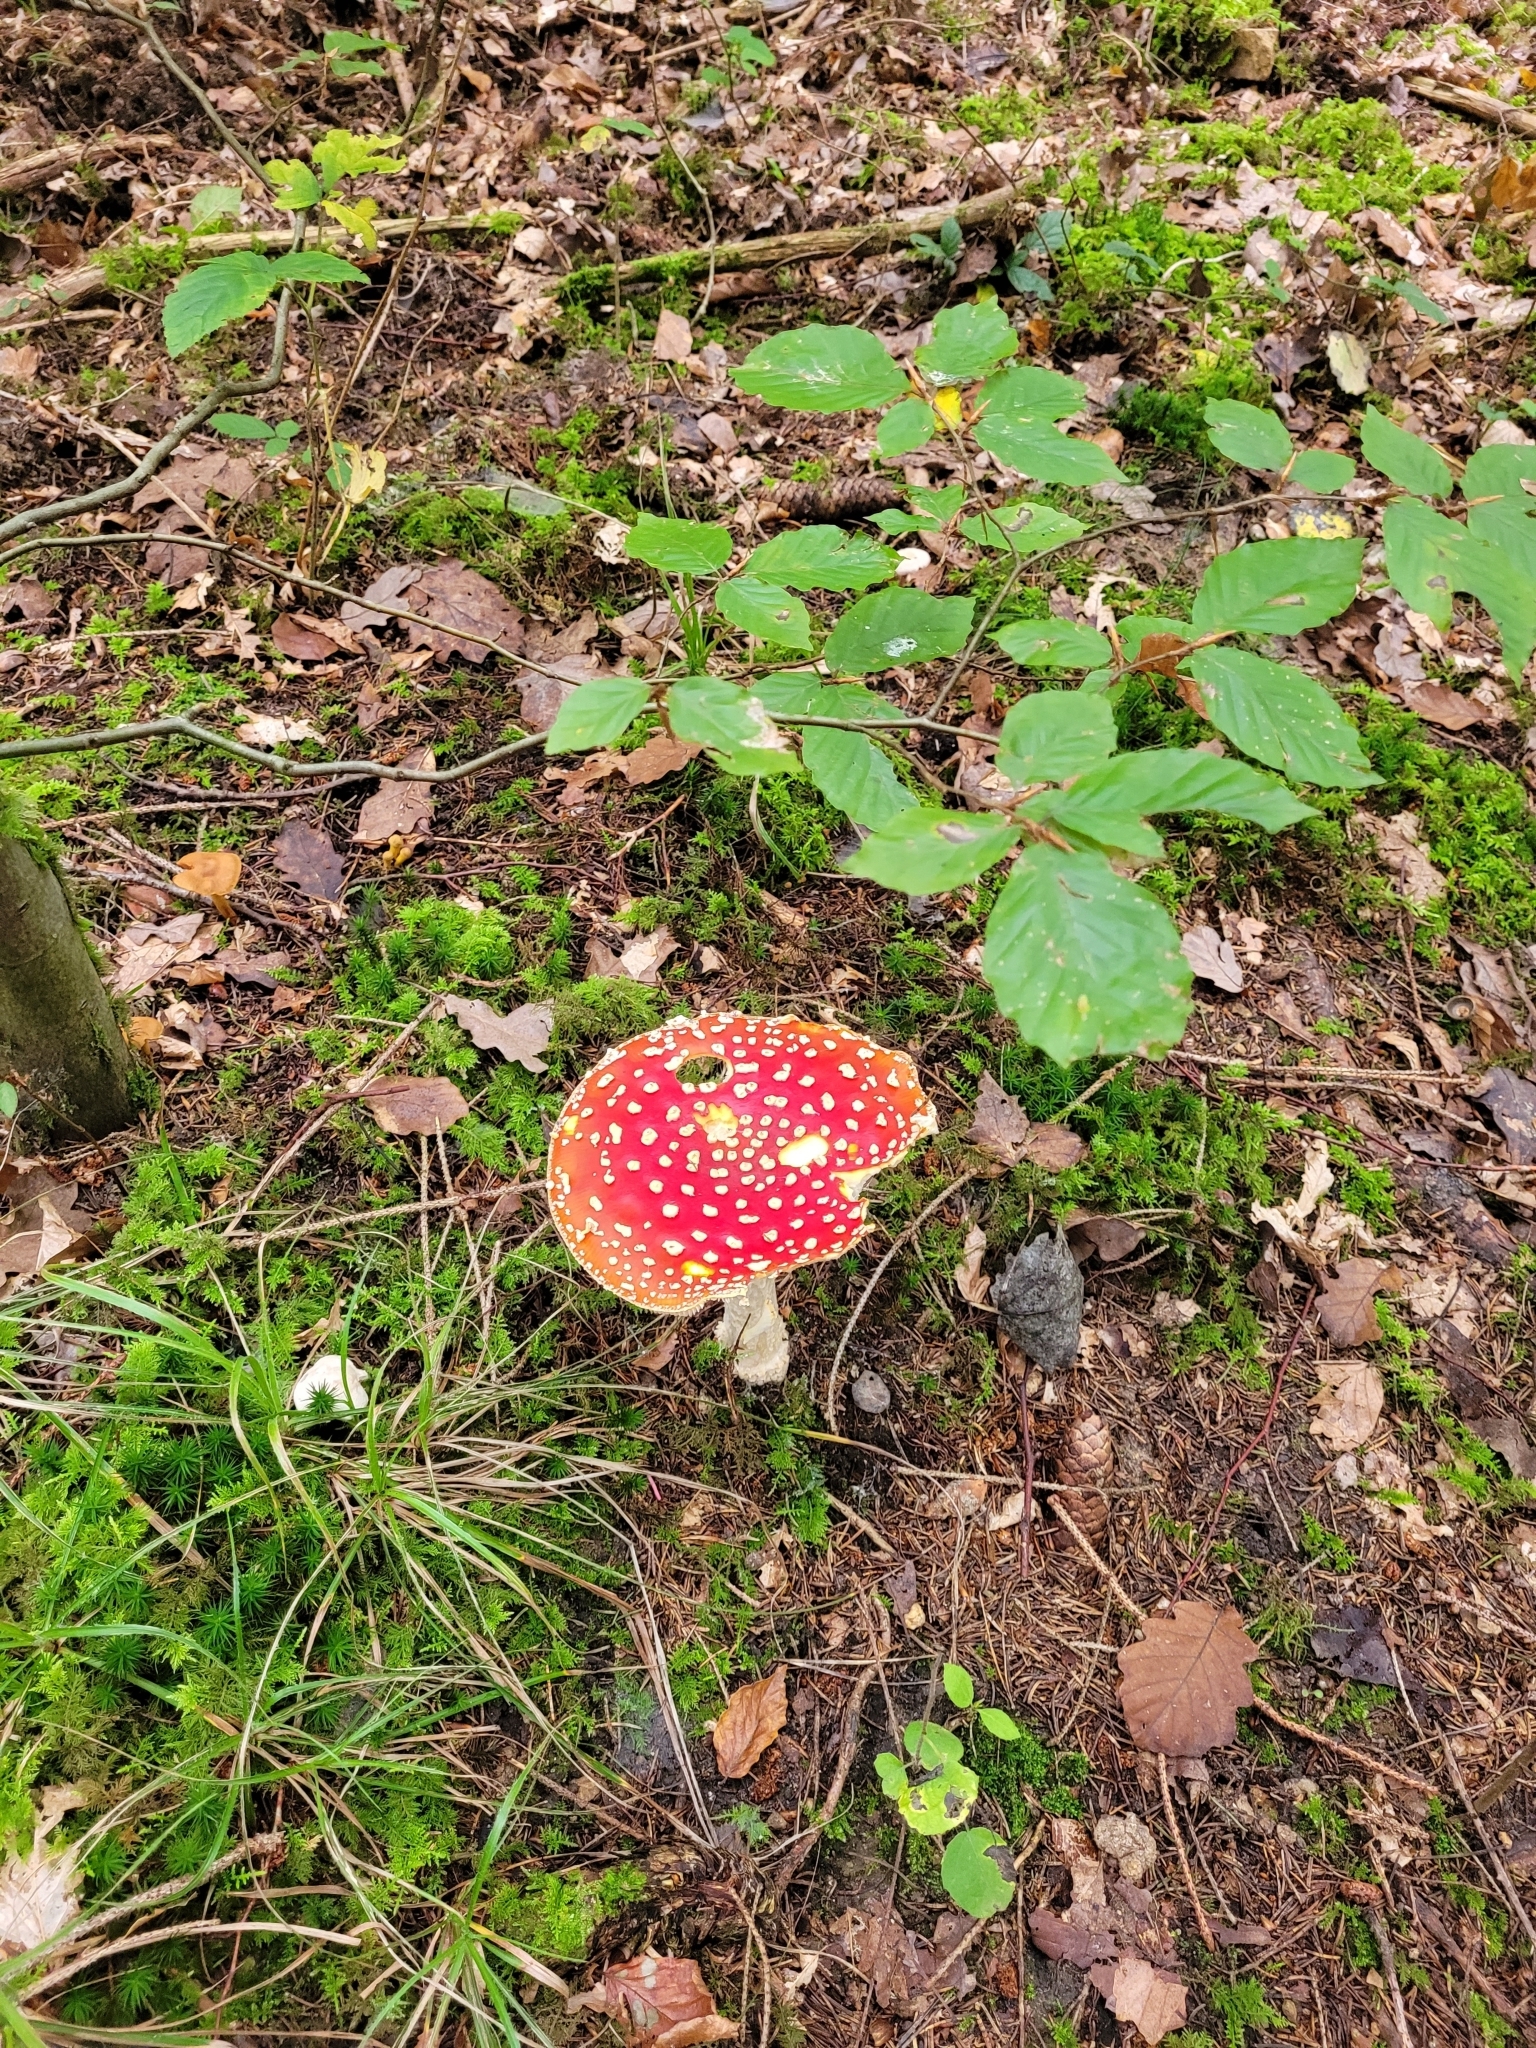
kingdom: Fungi
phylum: Basidiomycota
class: Agaricomycetes
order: Agaricales
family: Amanitaceae
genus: Amanita
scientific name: Amanita muscaria
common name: Fly agaric
